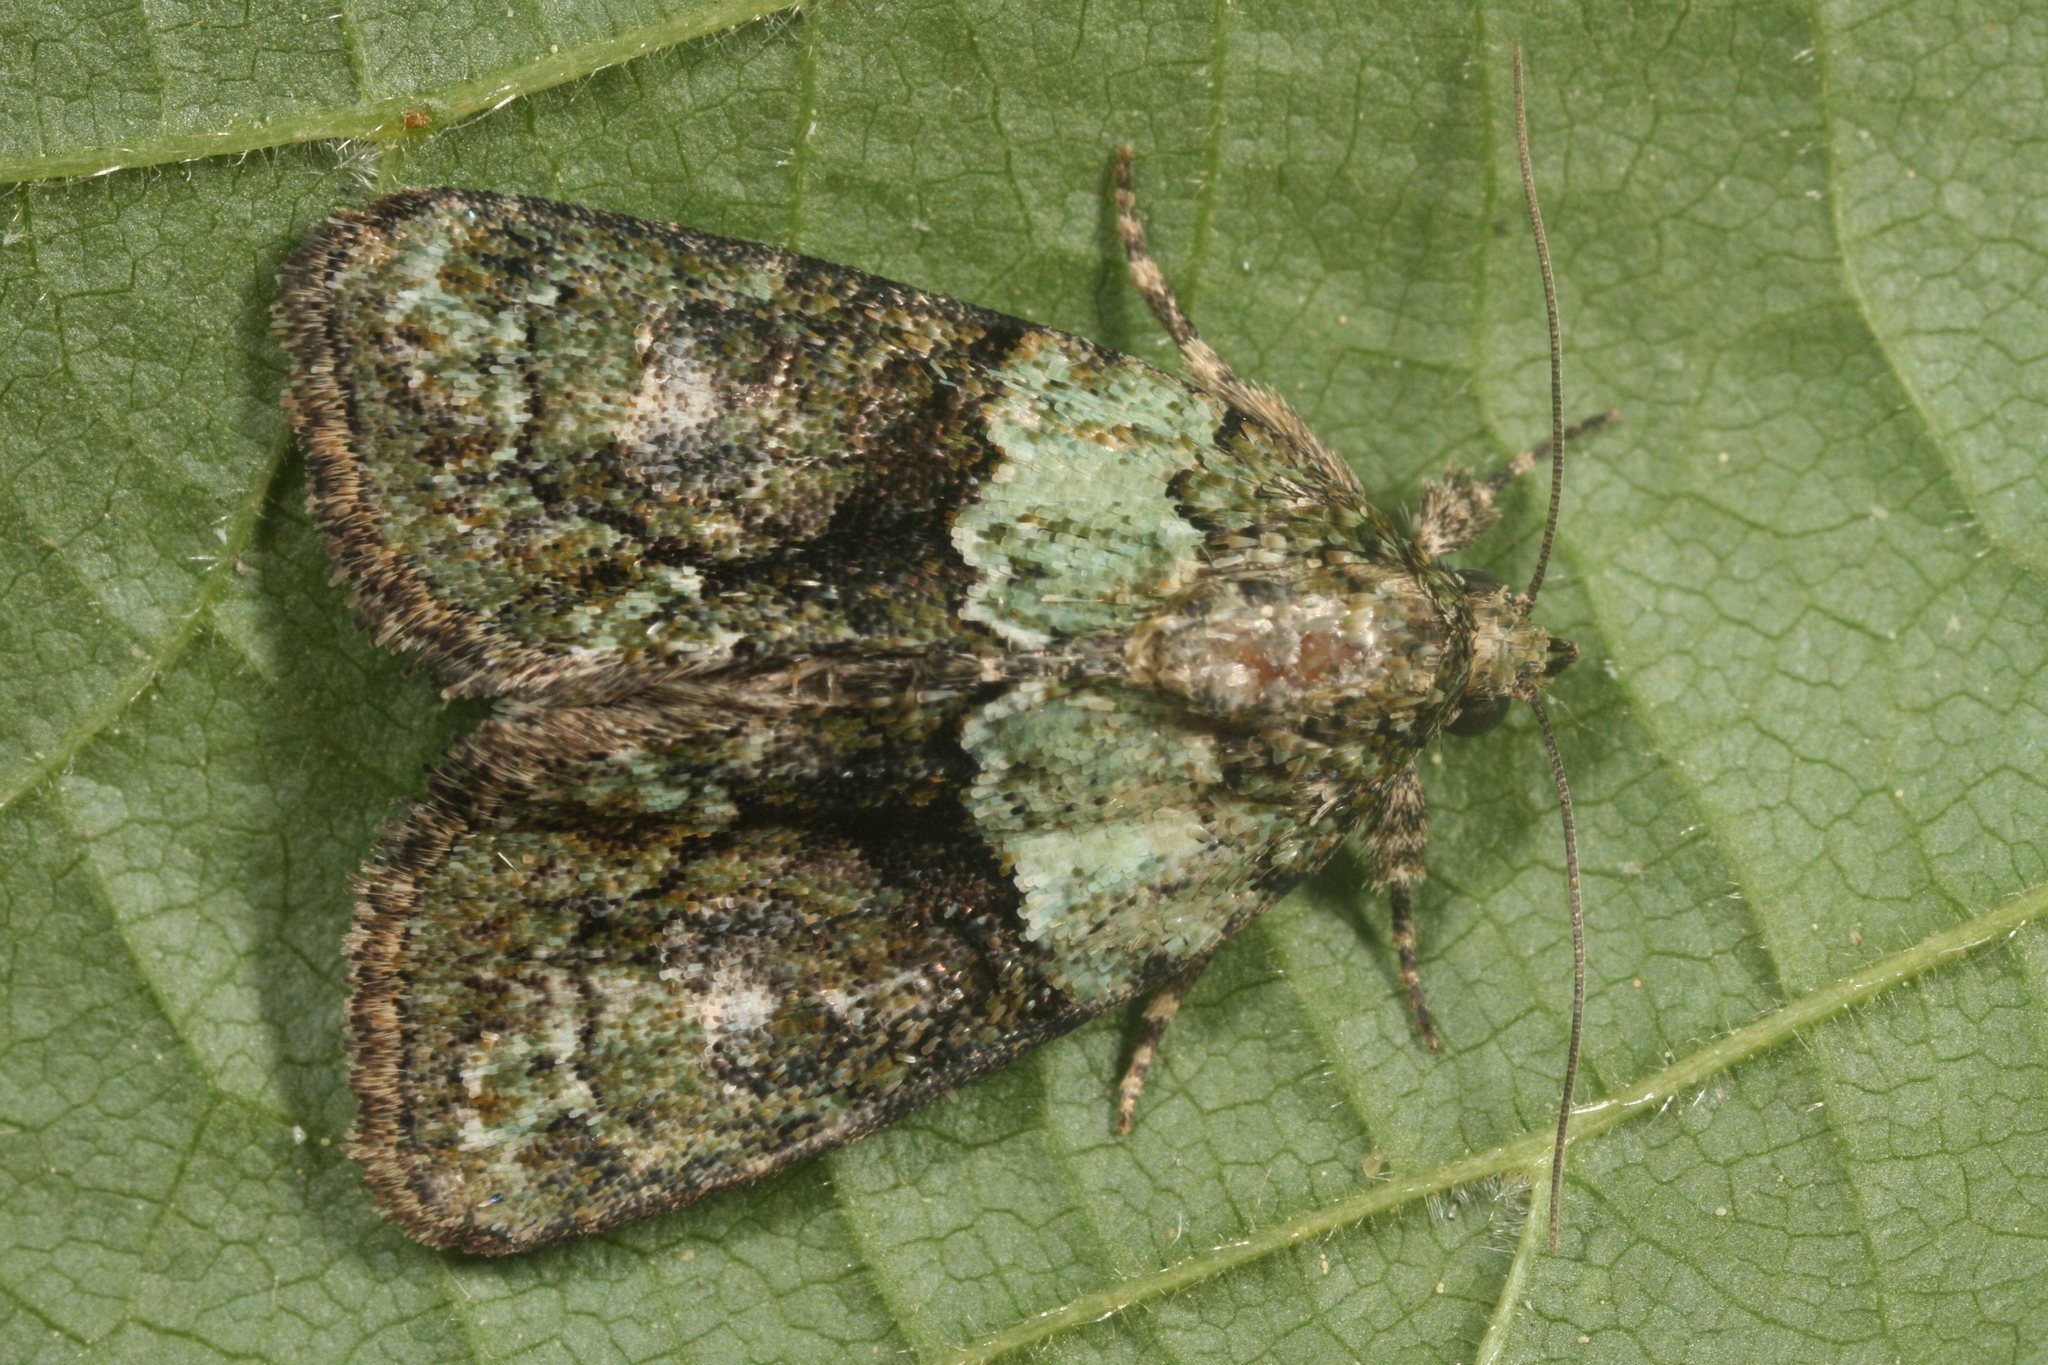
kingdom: Animalia
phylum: Arthropoda
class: Insecta
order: Lepidoptera
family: Noctuidae
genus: Cryphia
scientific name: Cryphia algae
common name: Tree-lichen beauty
